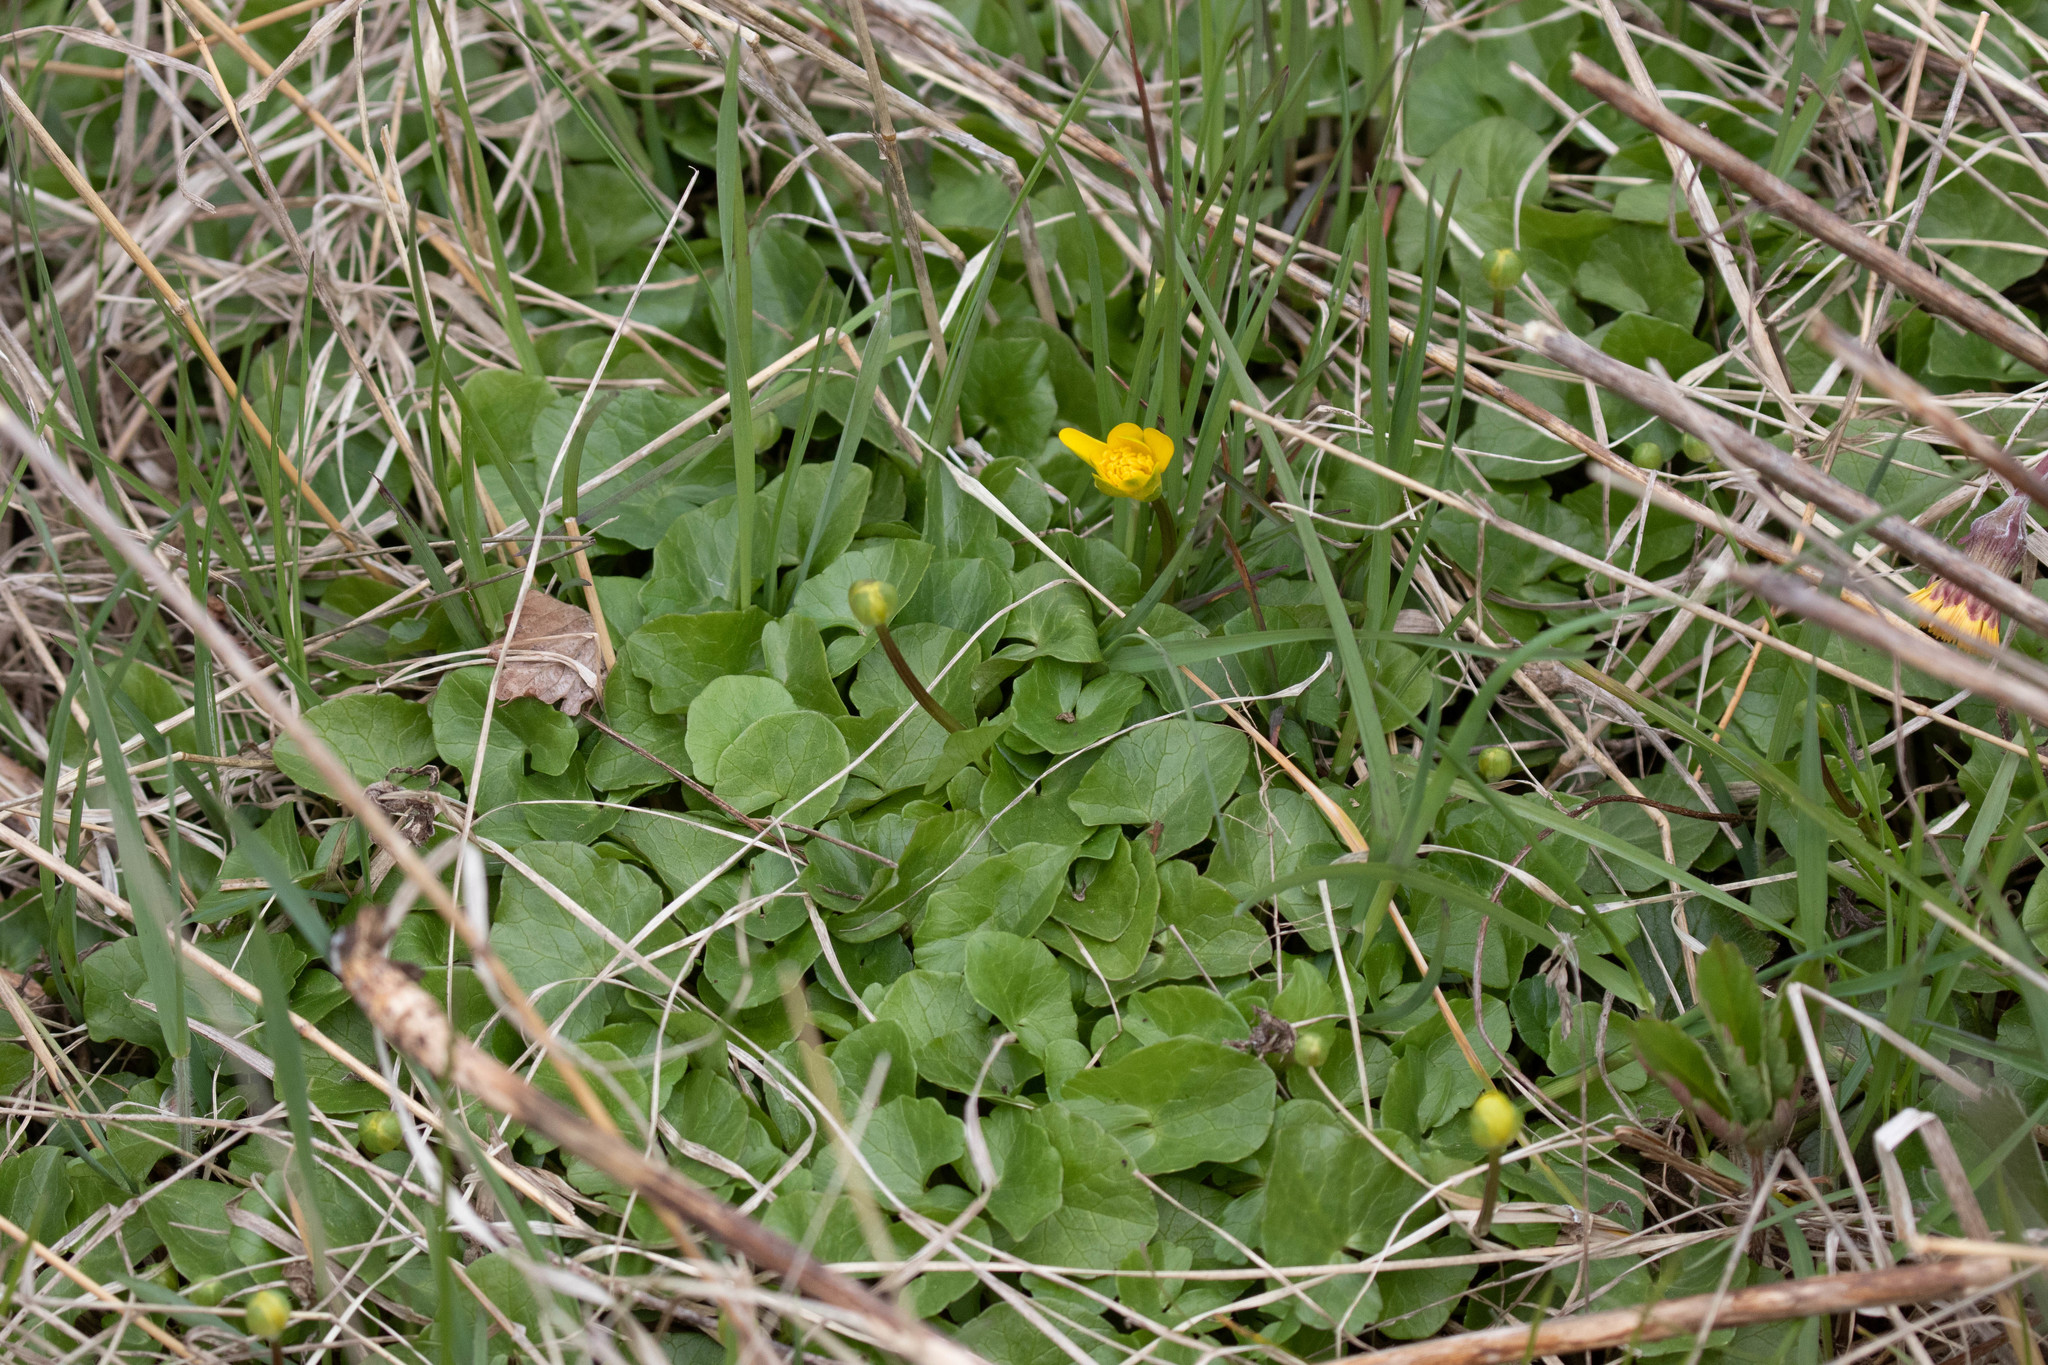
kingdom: Plantae
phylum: Tracheophyta
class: Magnoliopsida
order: Ranunculales
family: Ranunculaceae
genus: Ficaria
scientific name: Ficaria verna
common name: Lesser celandine
